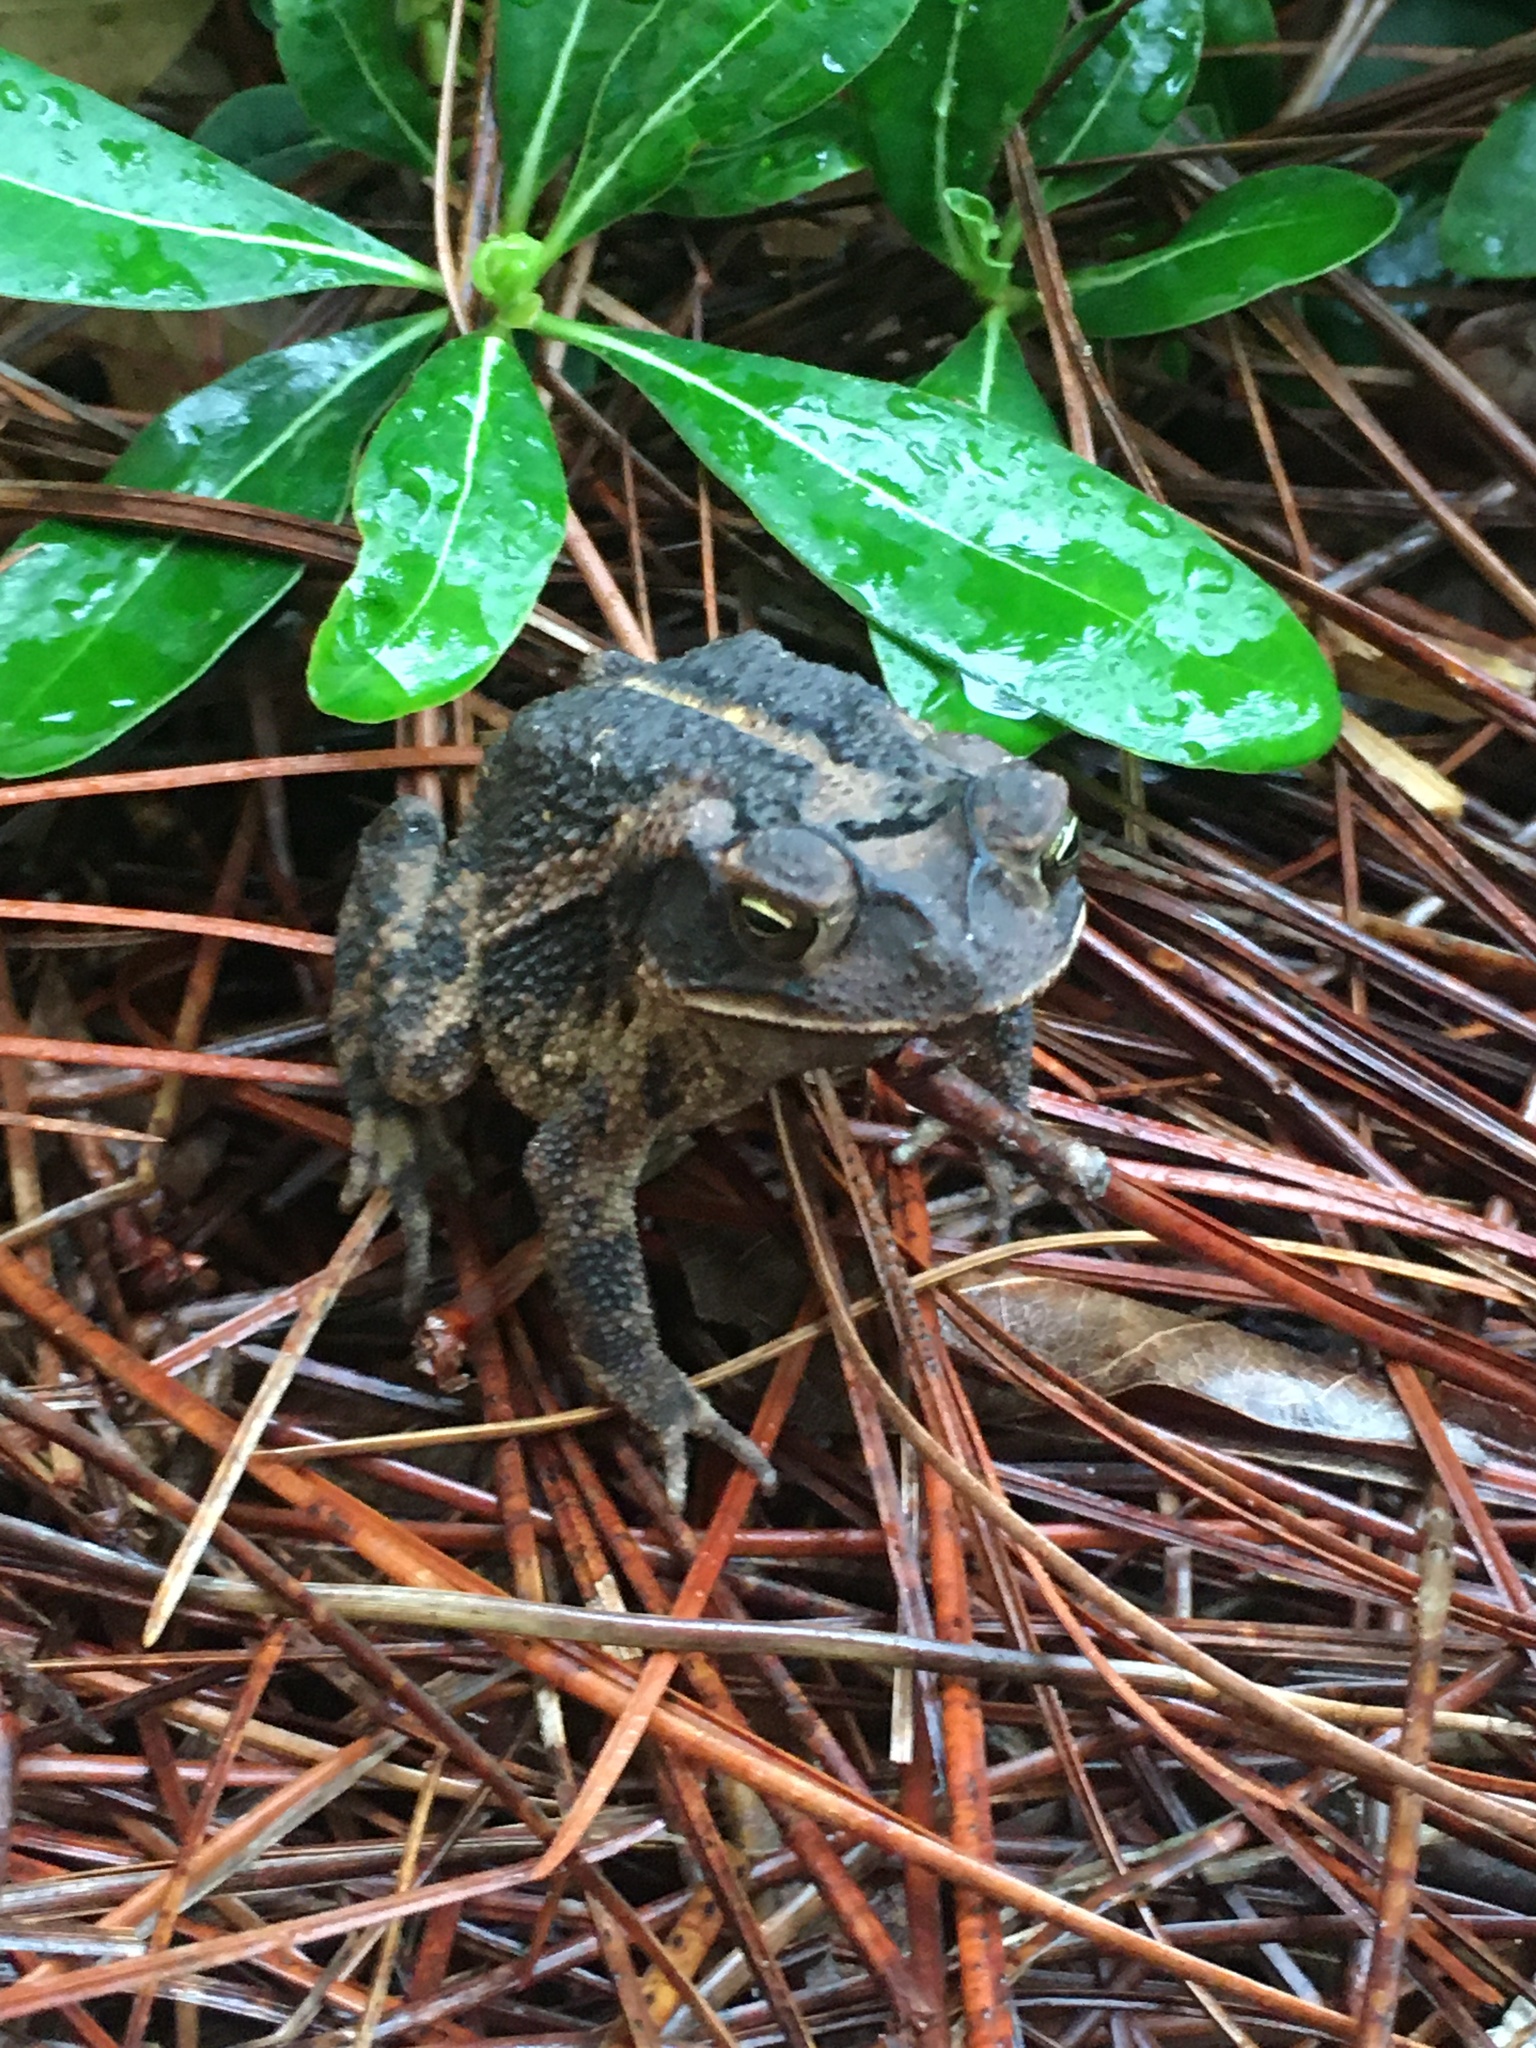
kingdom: Animalia
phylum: Chordata
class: Amphibia
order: Anura
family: Bufonidae
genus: Incilius
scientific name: Incilius nebulifer
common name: Gulf coast toad
